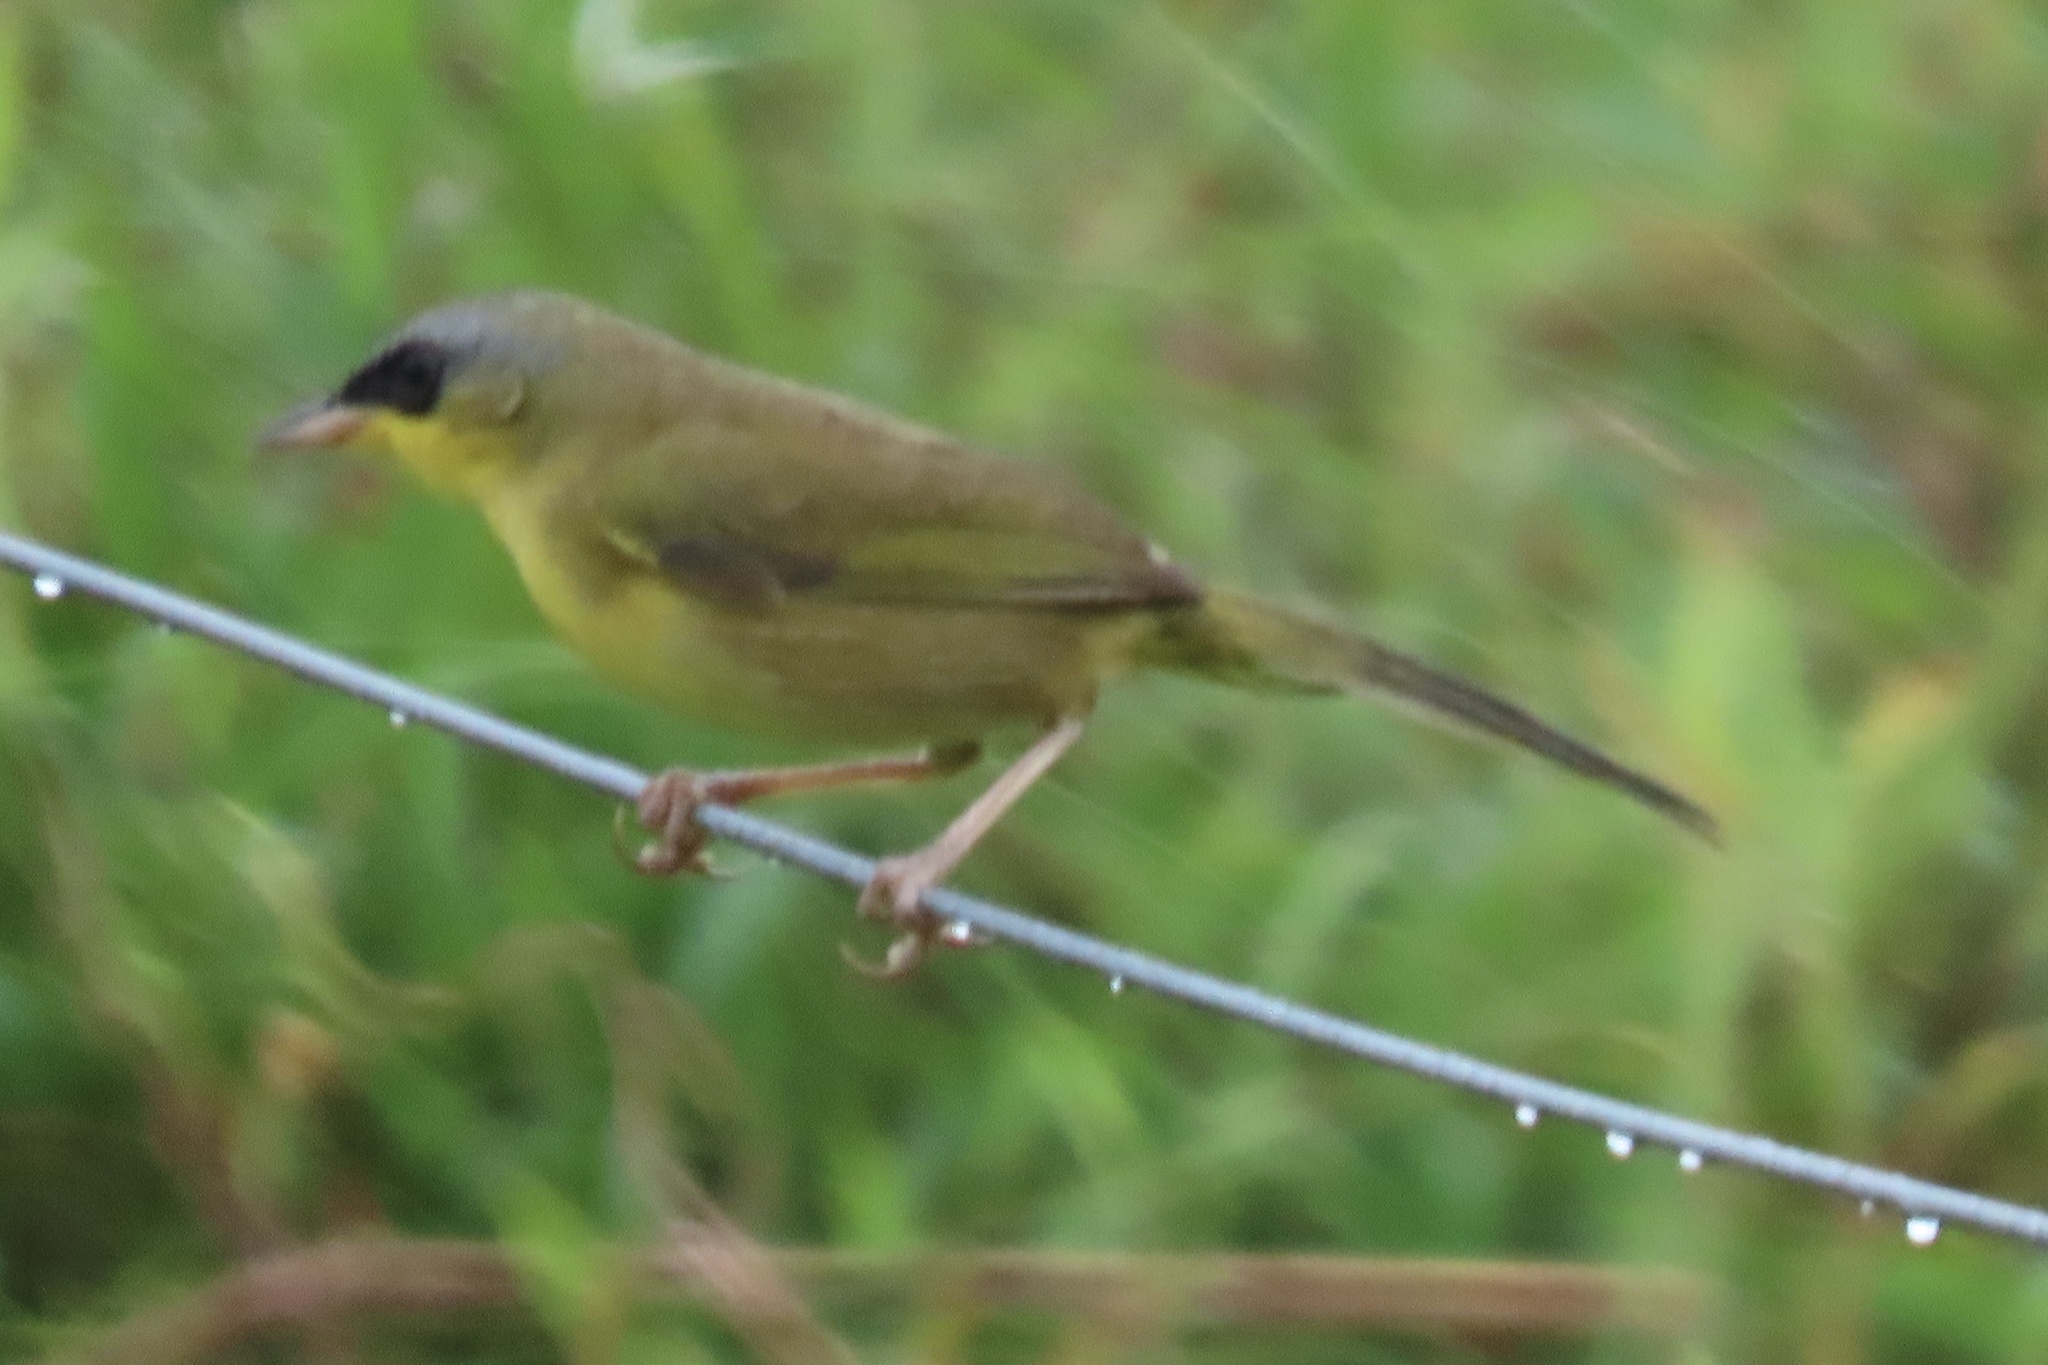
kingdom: Animalia
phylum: Chordata
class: Aves
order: Passeriformes
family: Parulidae
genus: Geothlypis
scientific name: Geothlypis poliocephala
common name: Gray-crowned yellowthroat
